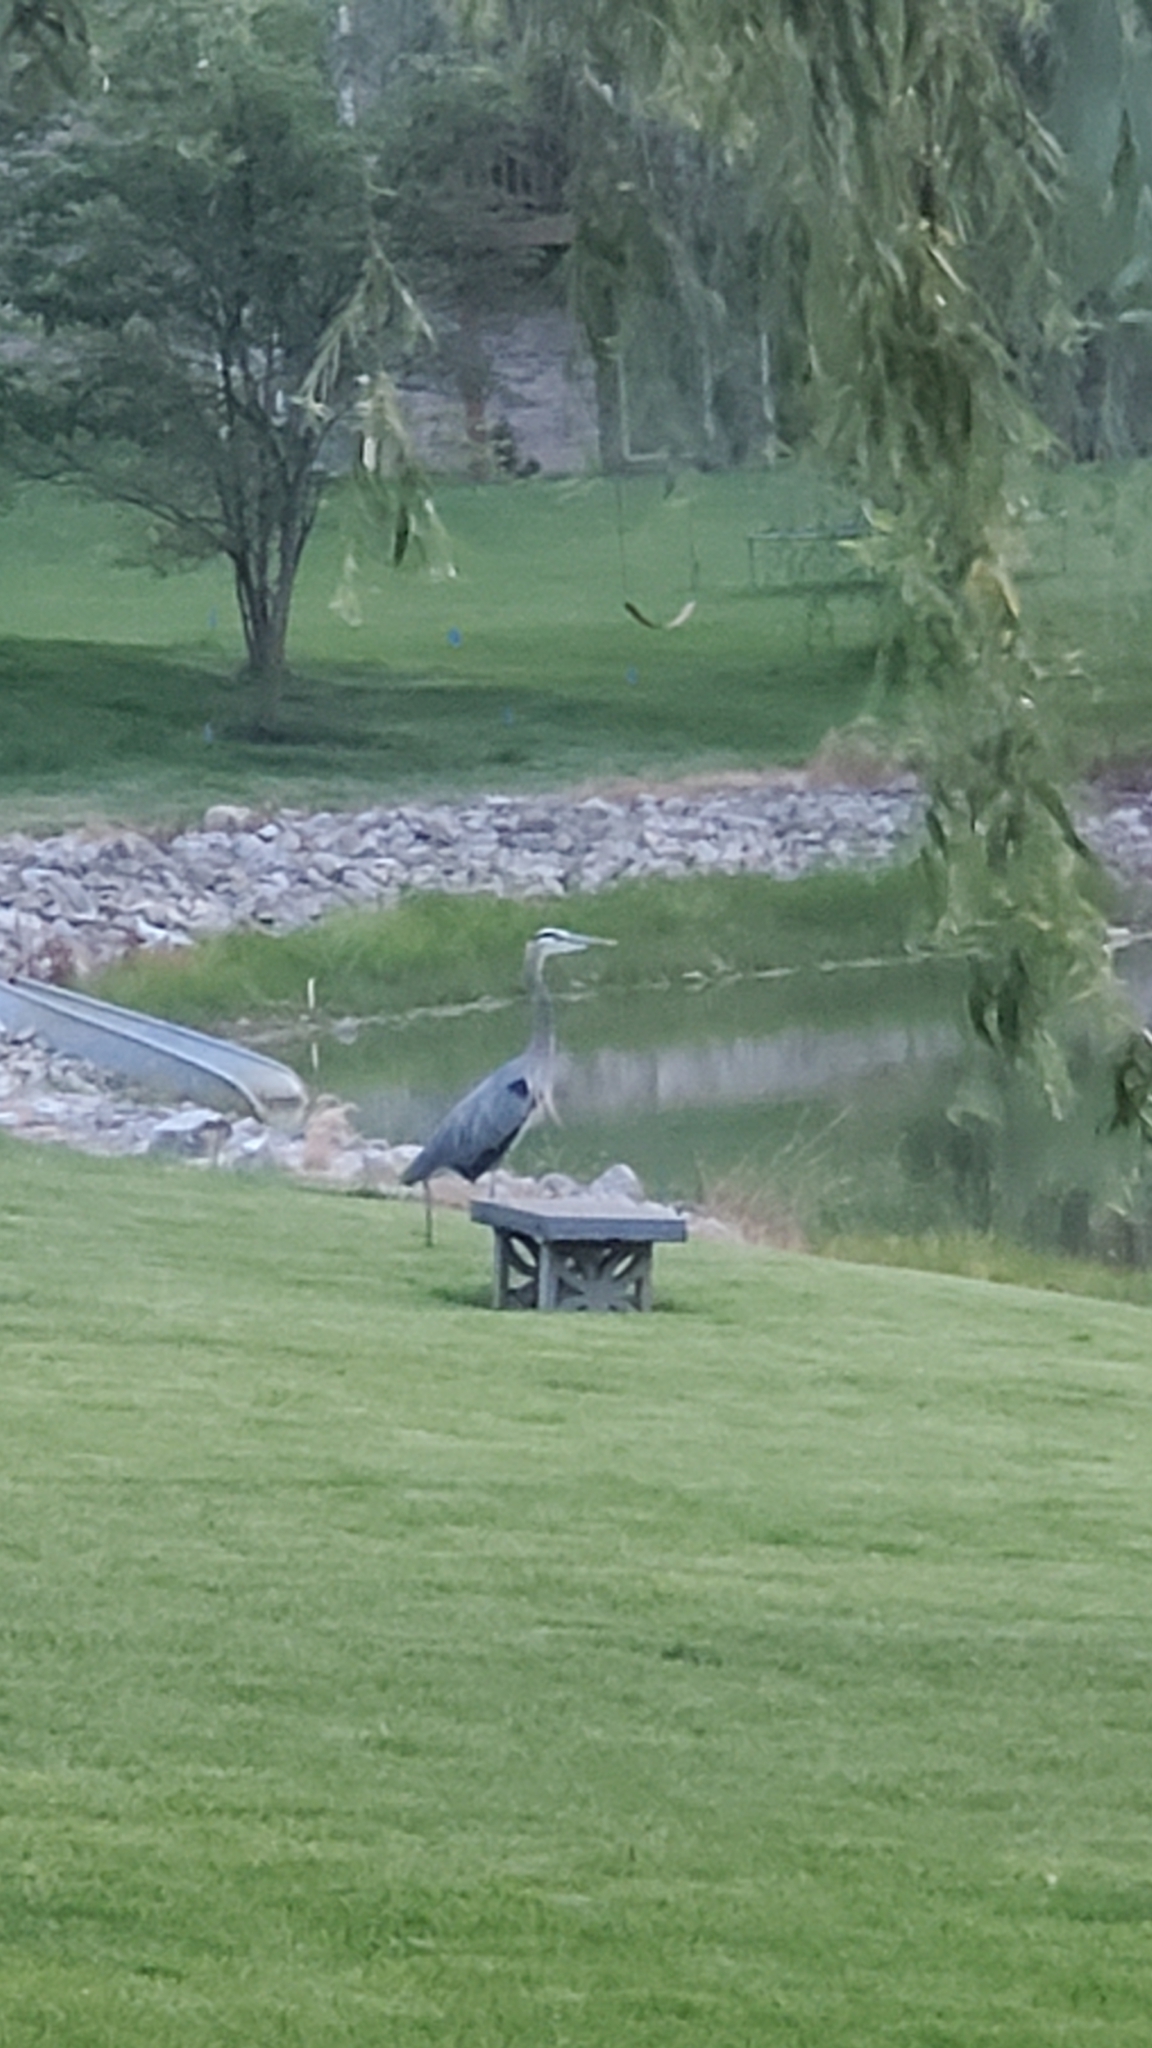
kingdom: Animalia
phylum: Chordata
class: Aves
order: Pelecaniformes
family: Ardeidae
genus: Ardea
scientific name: Ardea herodias
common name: Great blue heron
